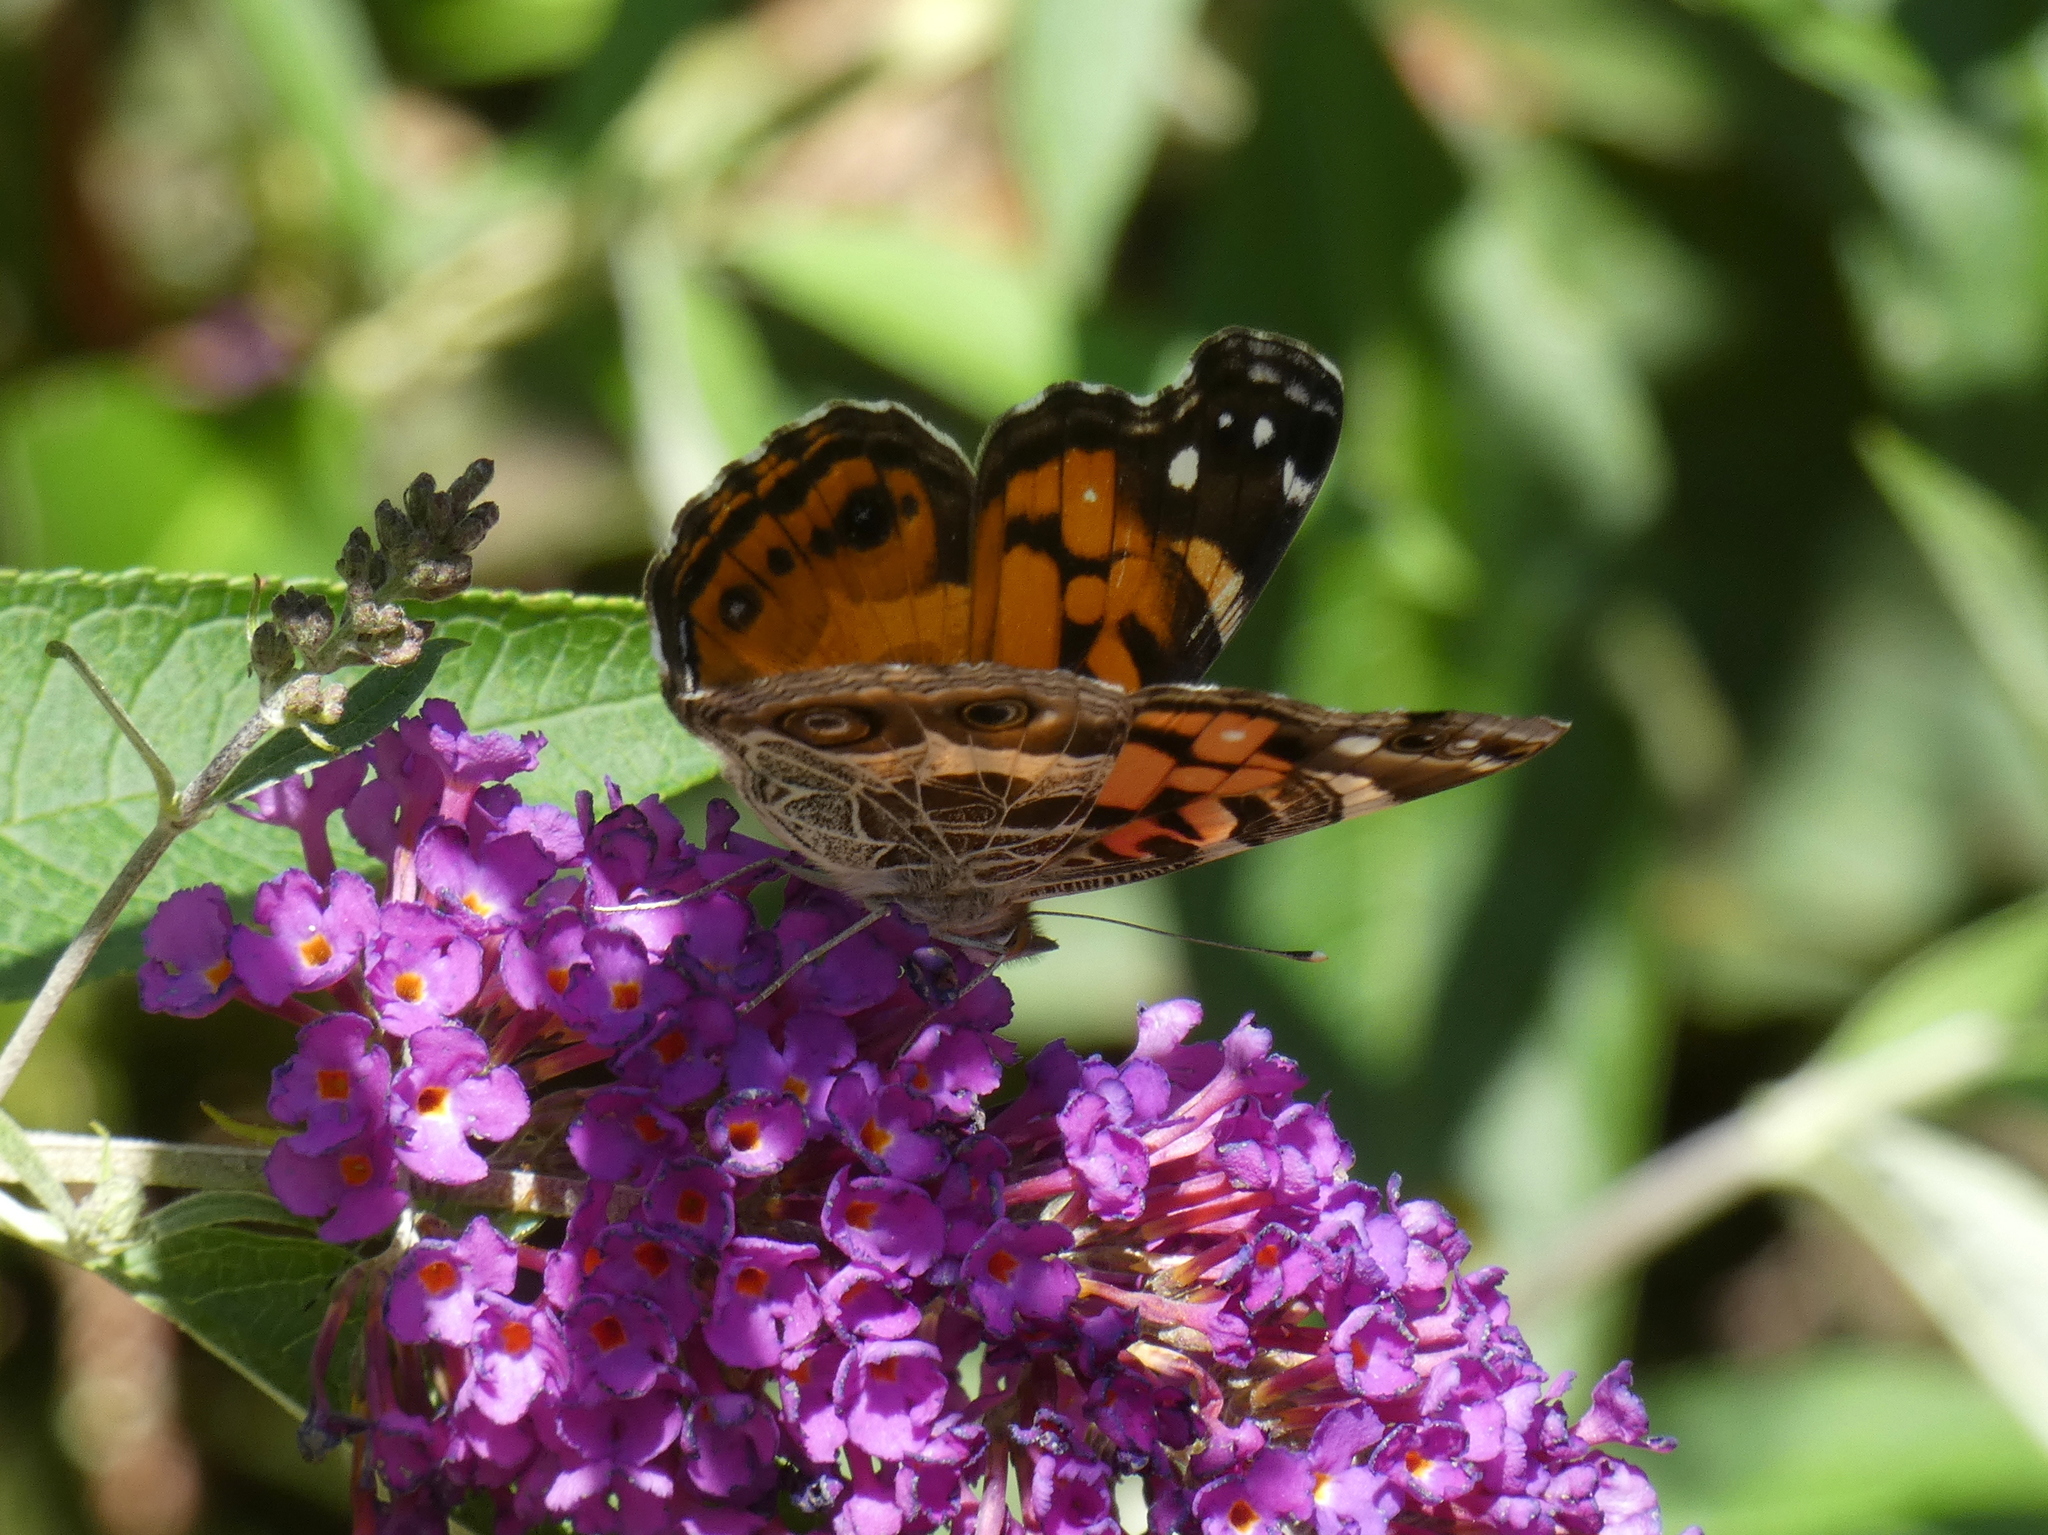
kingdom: Animalia
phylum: Arthropoda
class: Insecta
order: Lepidoptera
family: Nymphalidae
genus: Vanessa
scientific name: Vanessa virginiensis
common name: American lady
